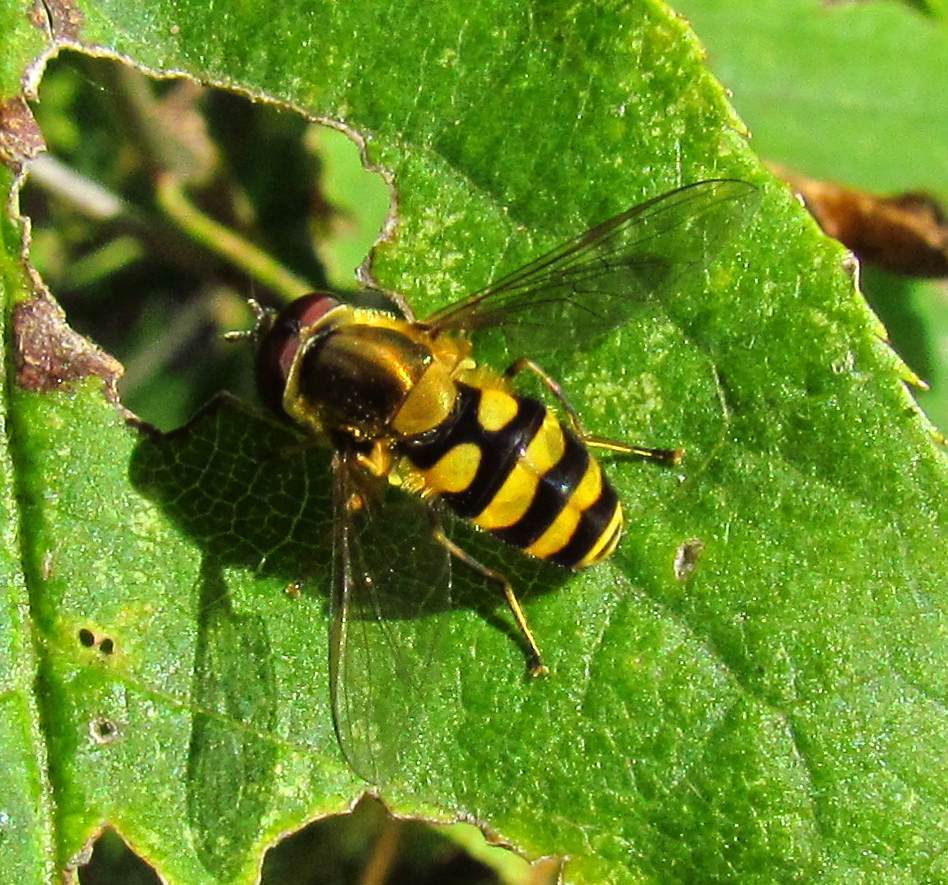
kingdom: Animalia
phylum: Arthropoda
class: Insecta
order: Diptera
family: Syrphidae
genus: Syrphus
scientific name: Syrphus
